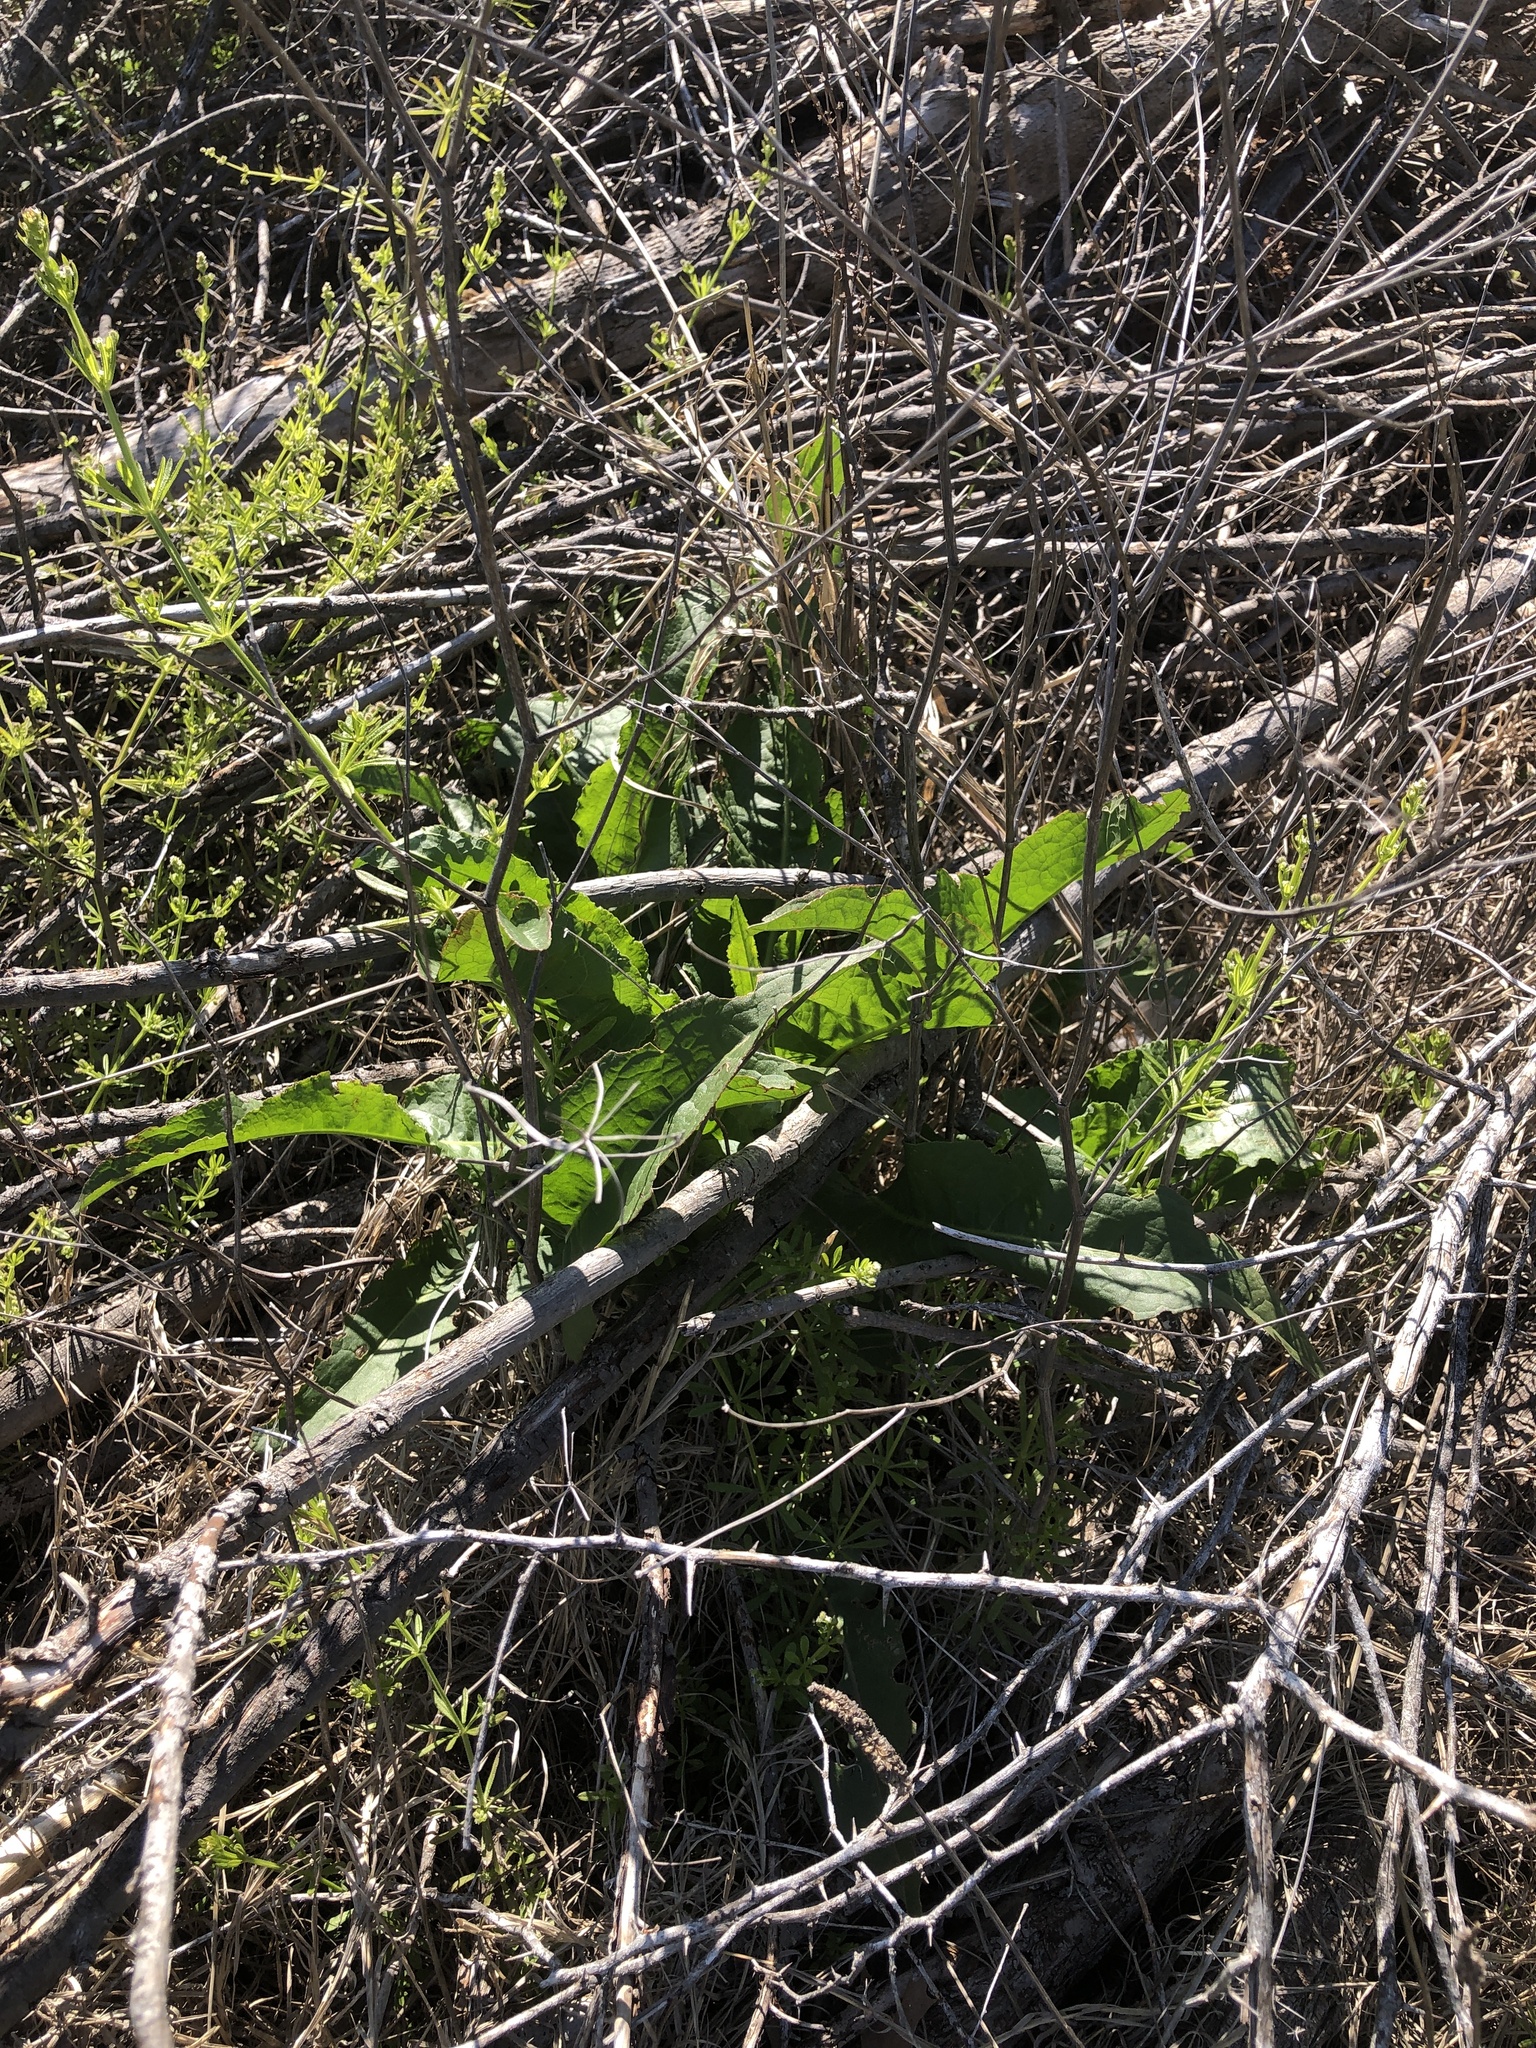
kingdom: Plantae
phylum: Tracheophyta
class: Magnoliopsida
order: Caryophyllales
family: Polygonaceae
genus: Rumex
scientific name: Rumex crispus
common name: Curled dock
